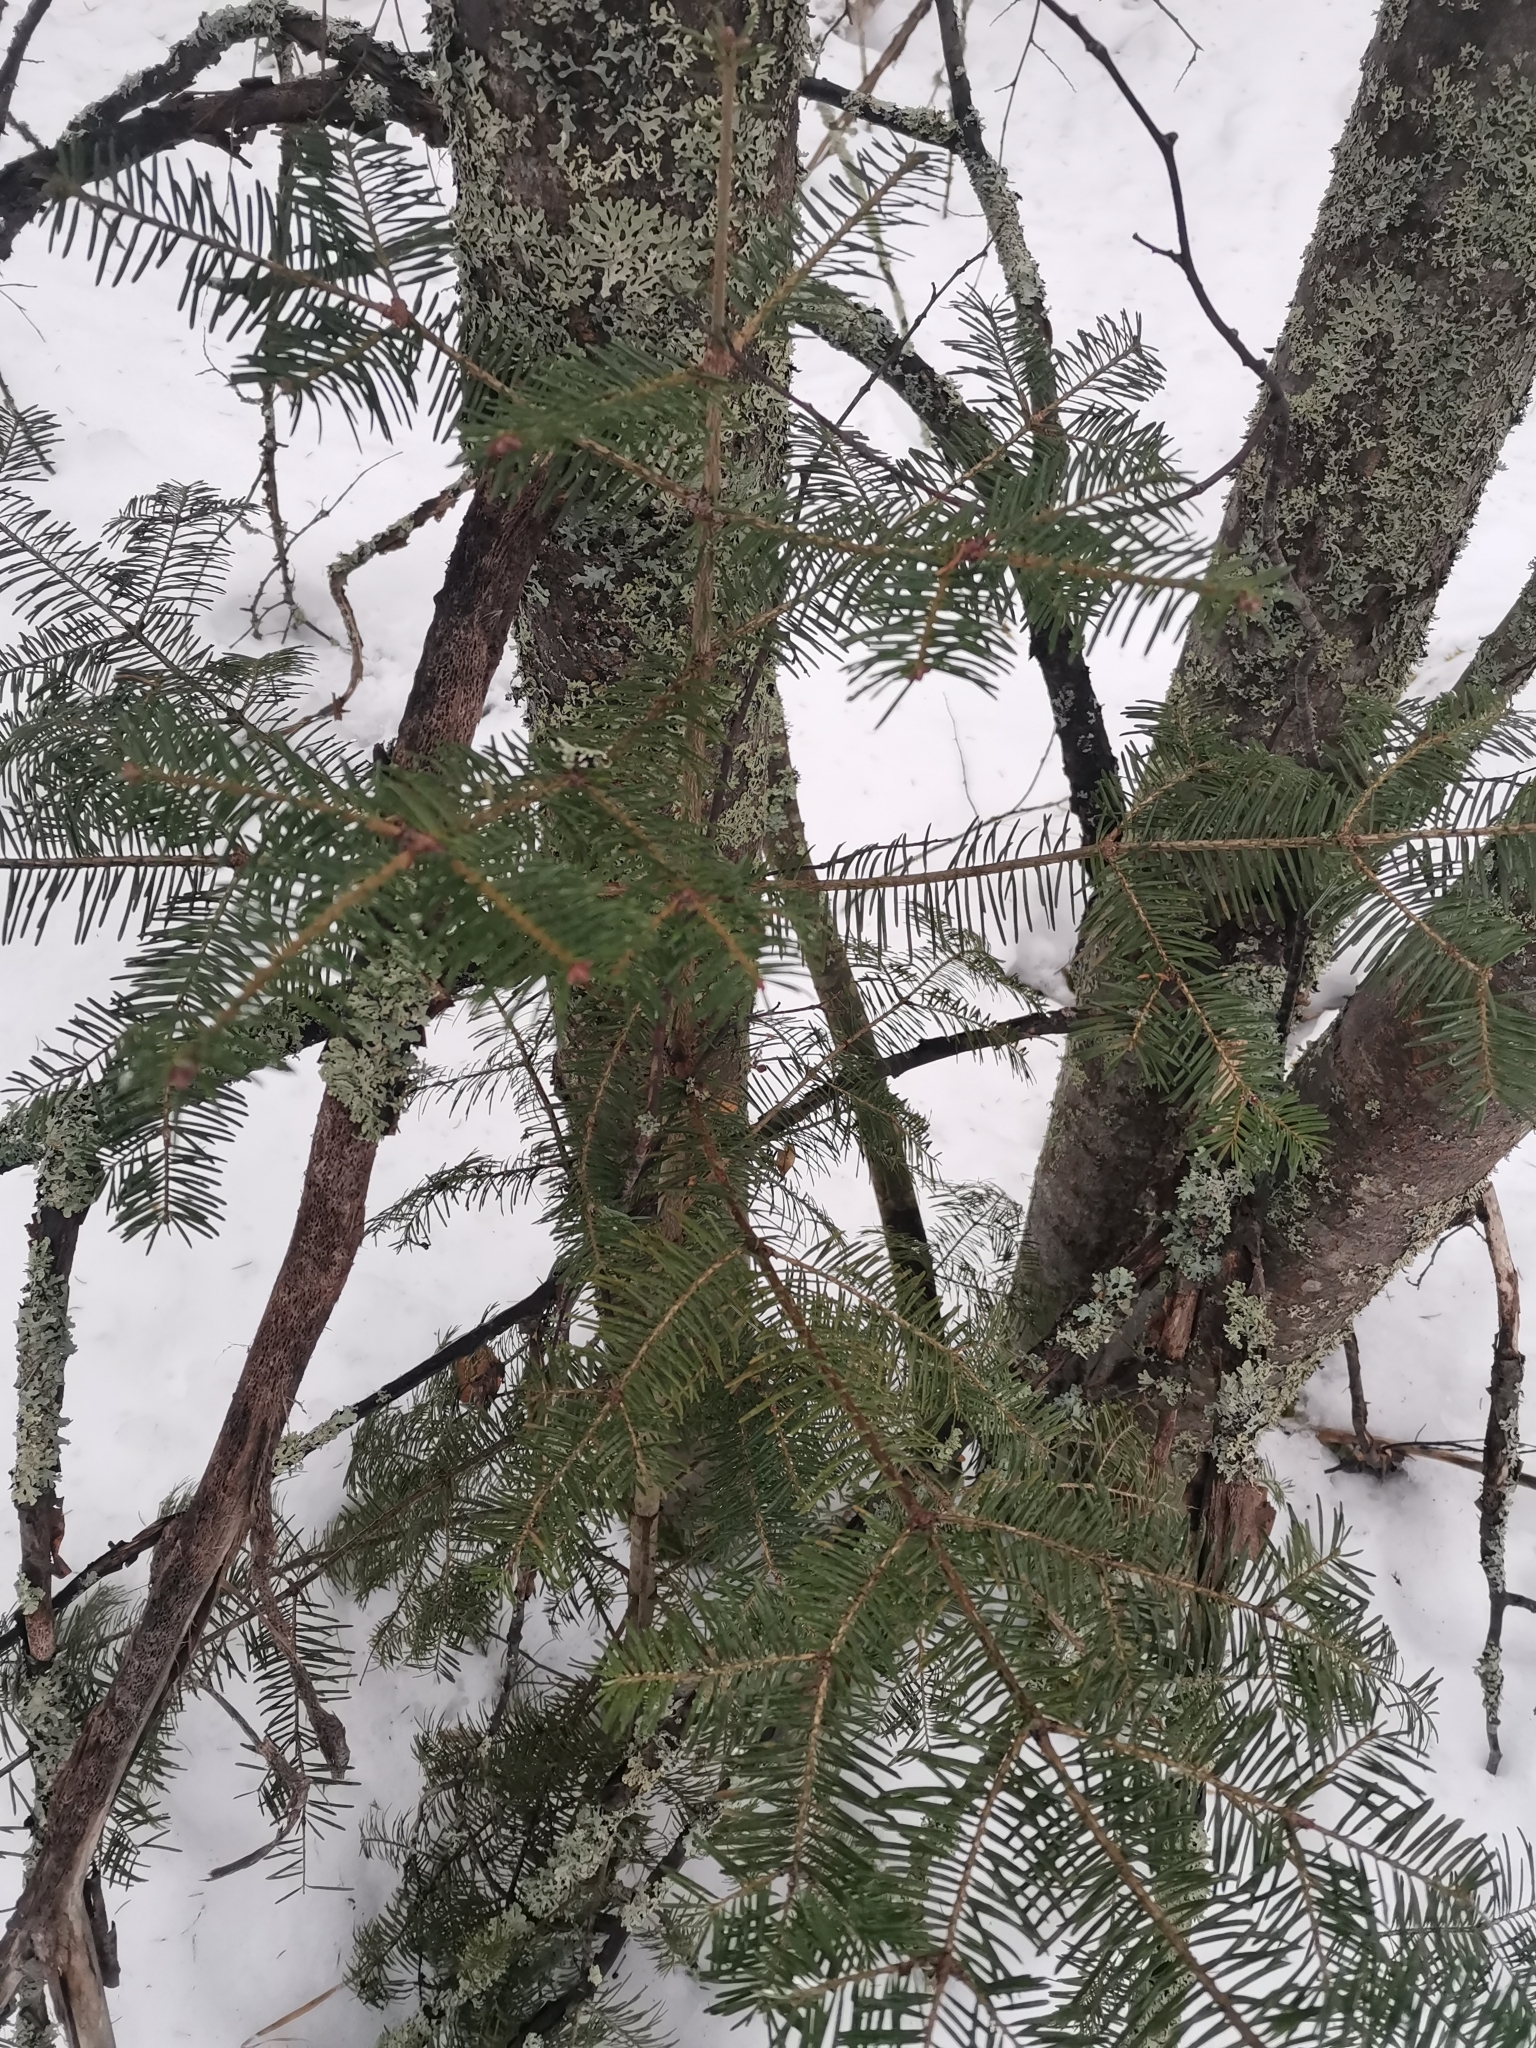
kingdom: Plantae
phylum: Tracheophyta
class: Pinopsida
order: Pinales
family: Pinaceae
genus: Abies
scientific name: Abies sibirica
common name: Siberian fir
